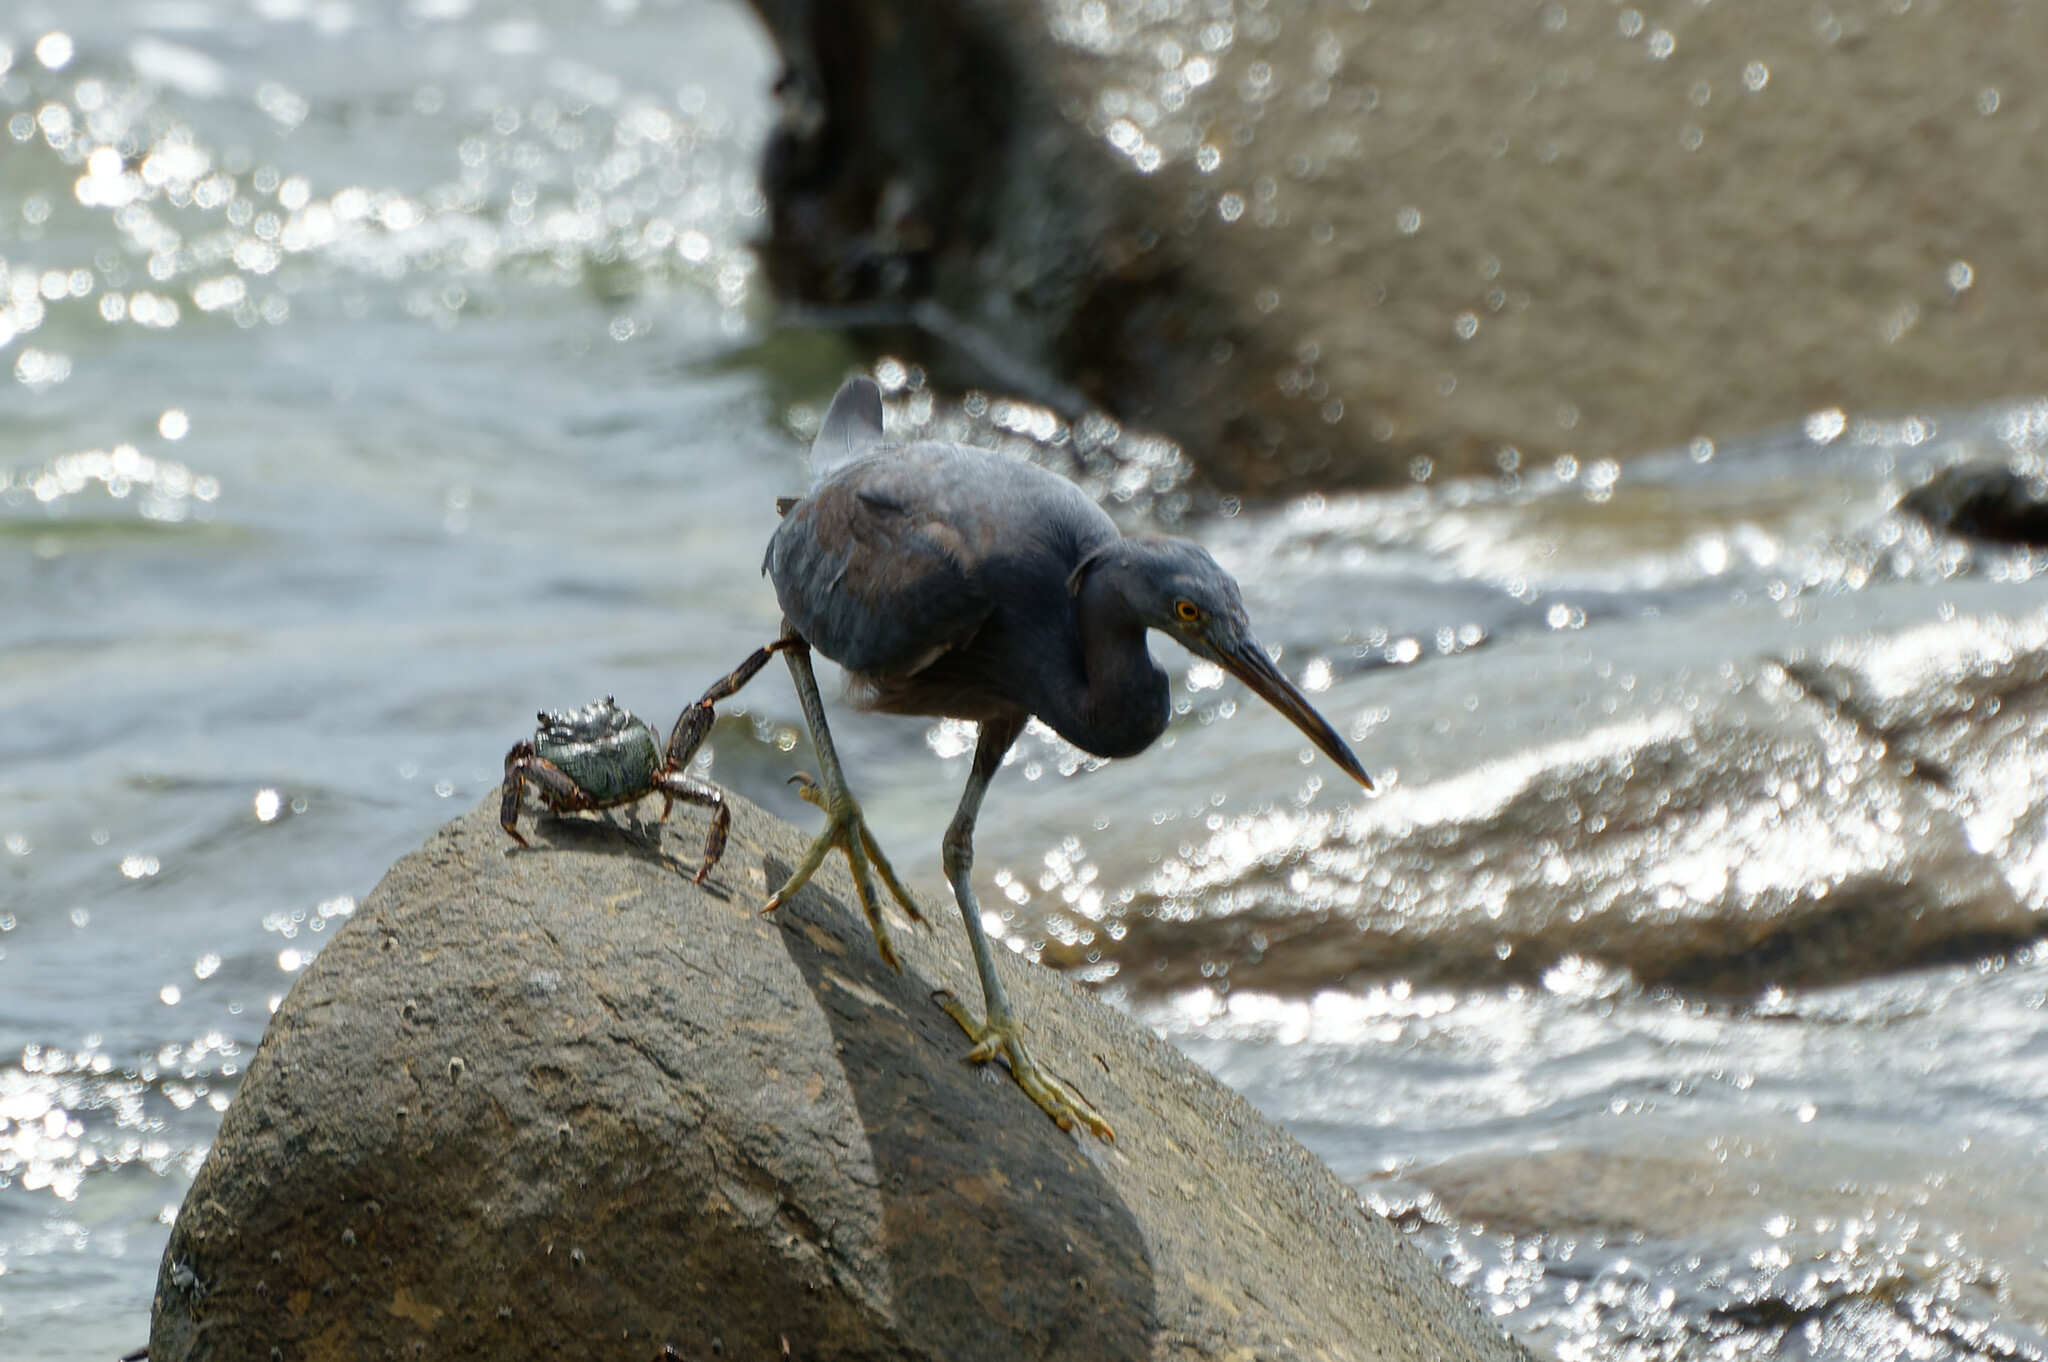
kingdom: Animalia
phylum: Chordata
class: Aves
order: Pelecaniformes
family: Ardeidae
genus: Egretta
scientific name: Egretta sacra
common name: Pacific reef heron
